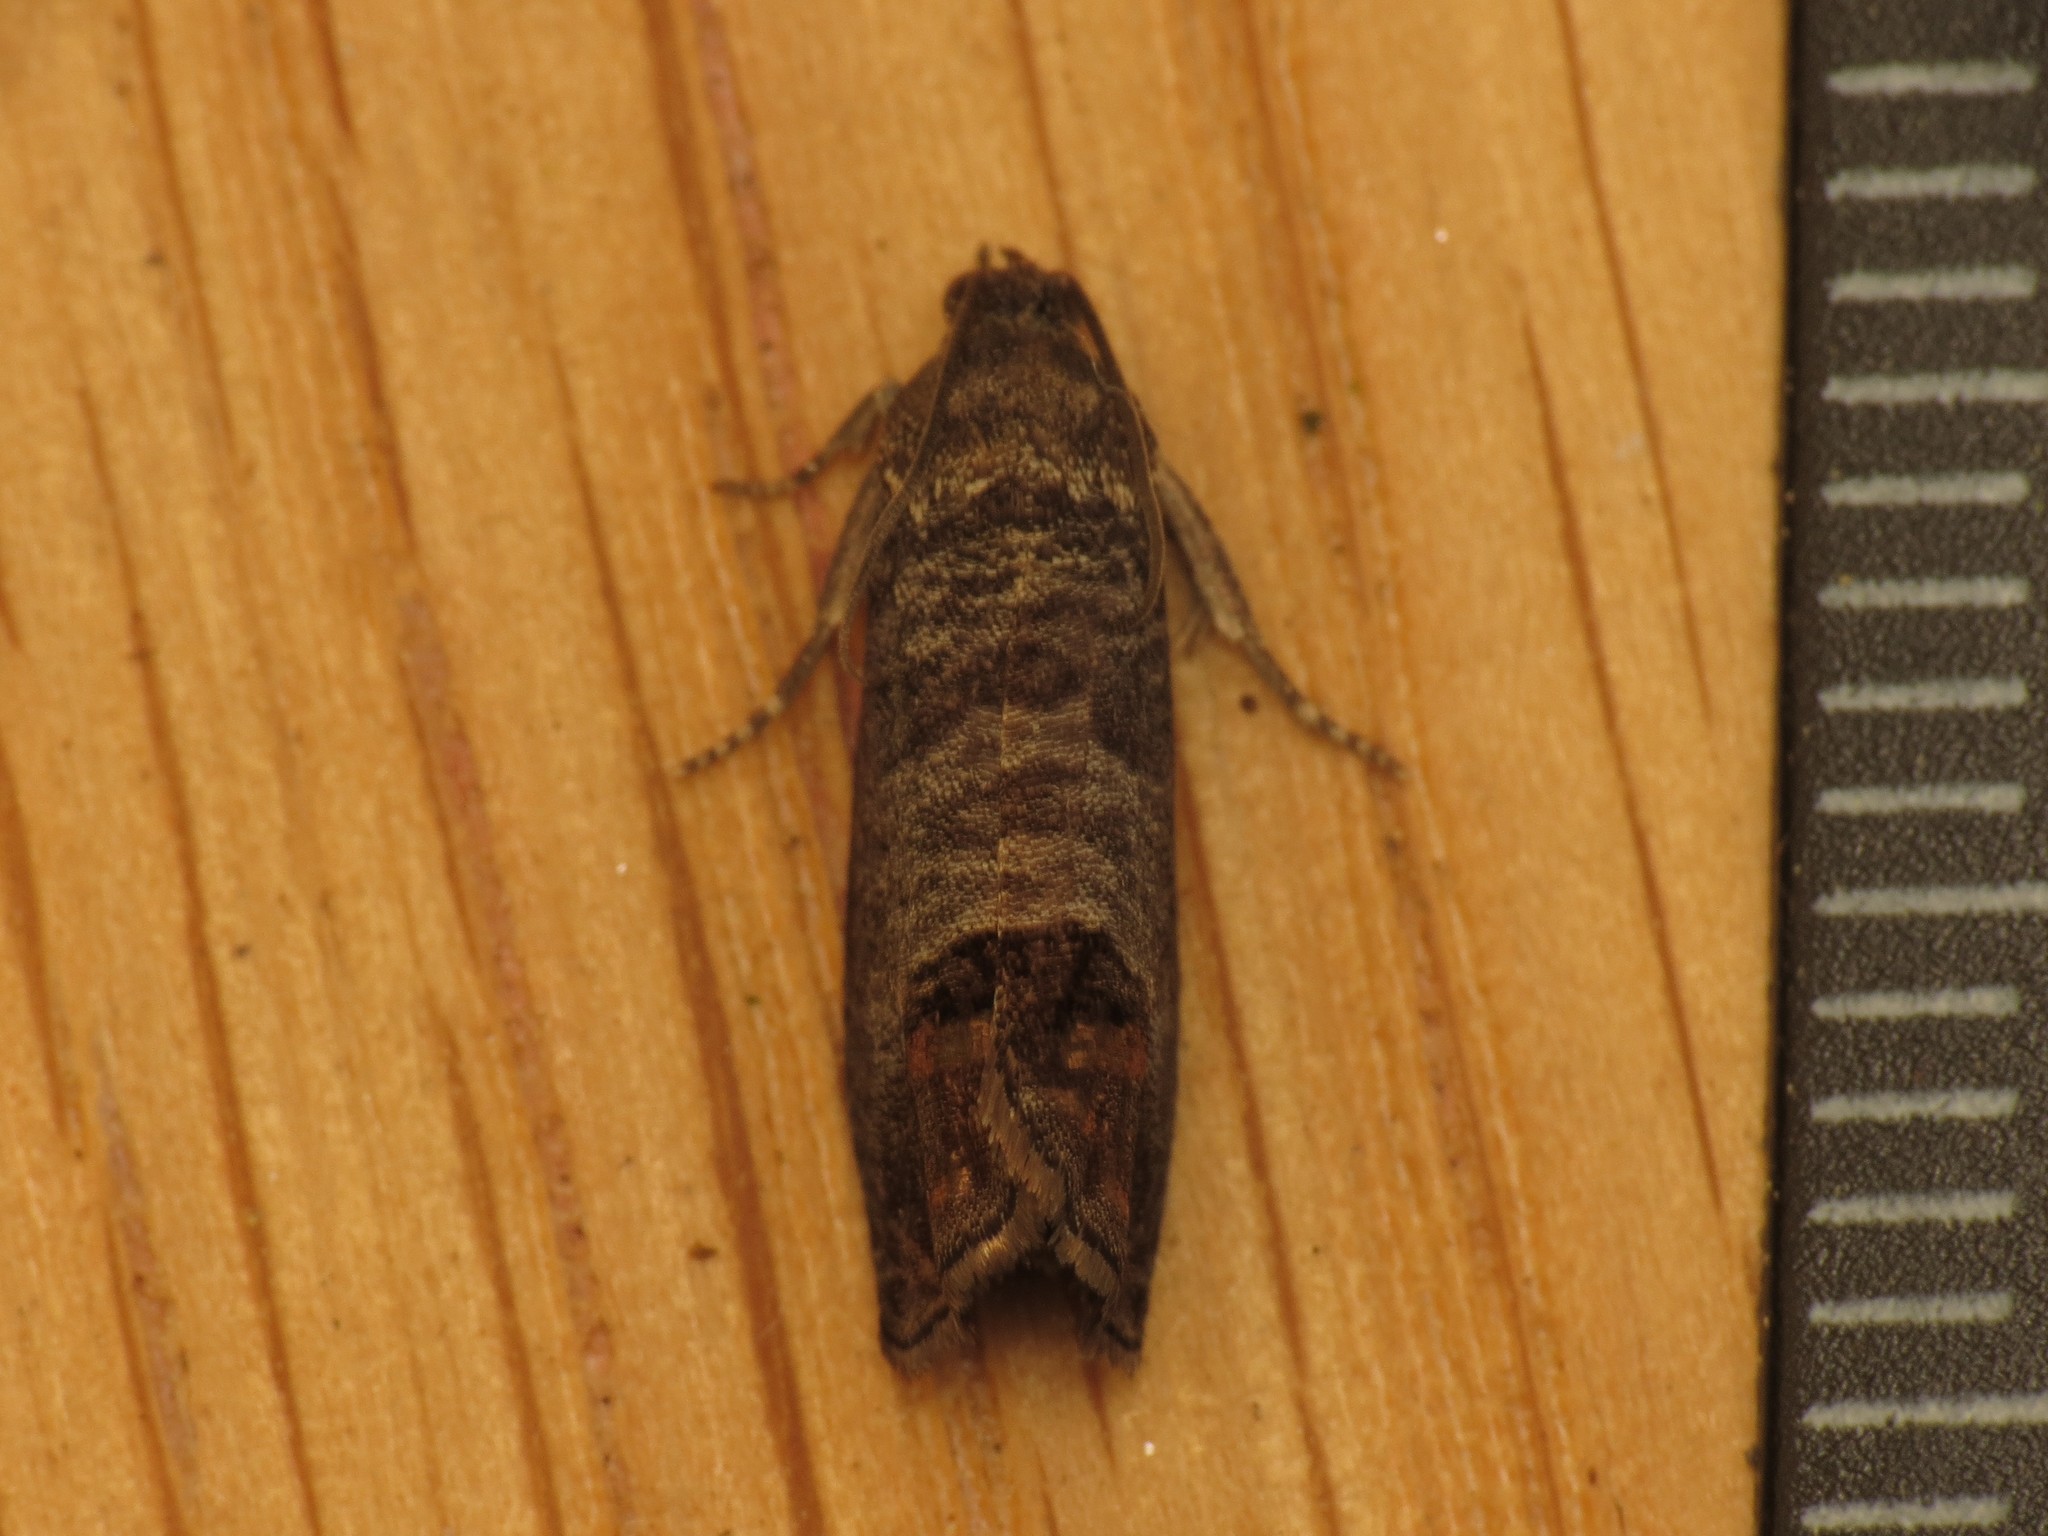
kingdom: Animalia
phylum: Arthropoda
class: Insecta
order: Lepidoptera
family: Tortricidae
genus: Cydia
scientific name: Cydia pomonella
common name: Codling moth
